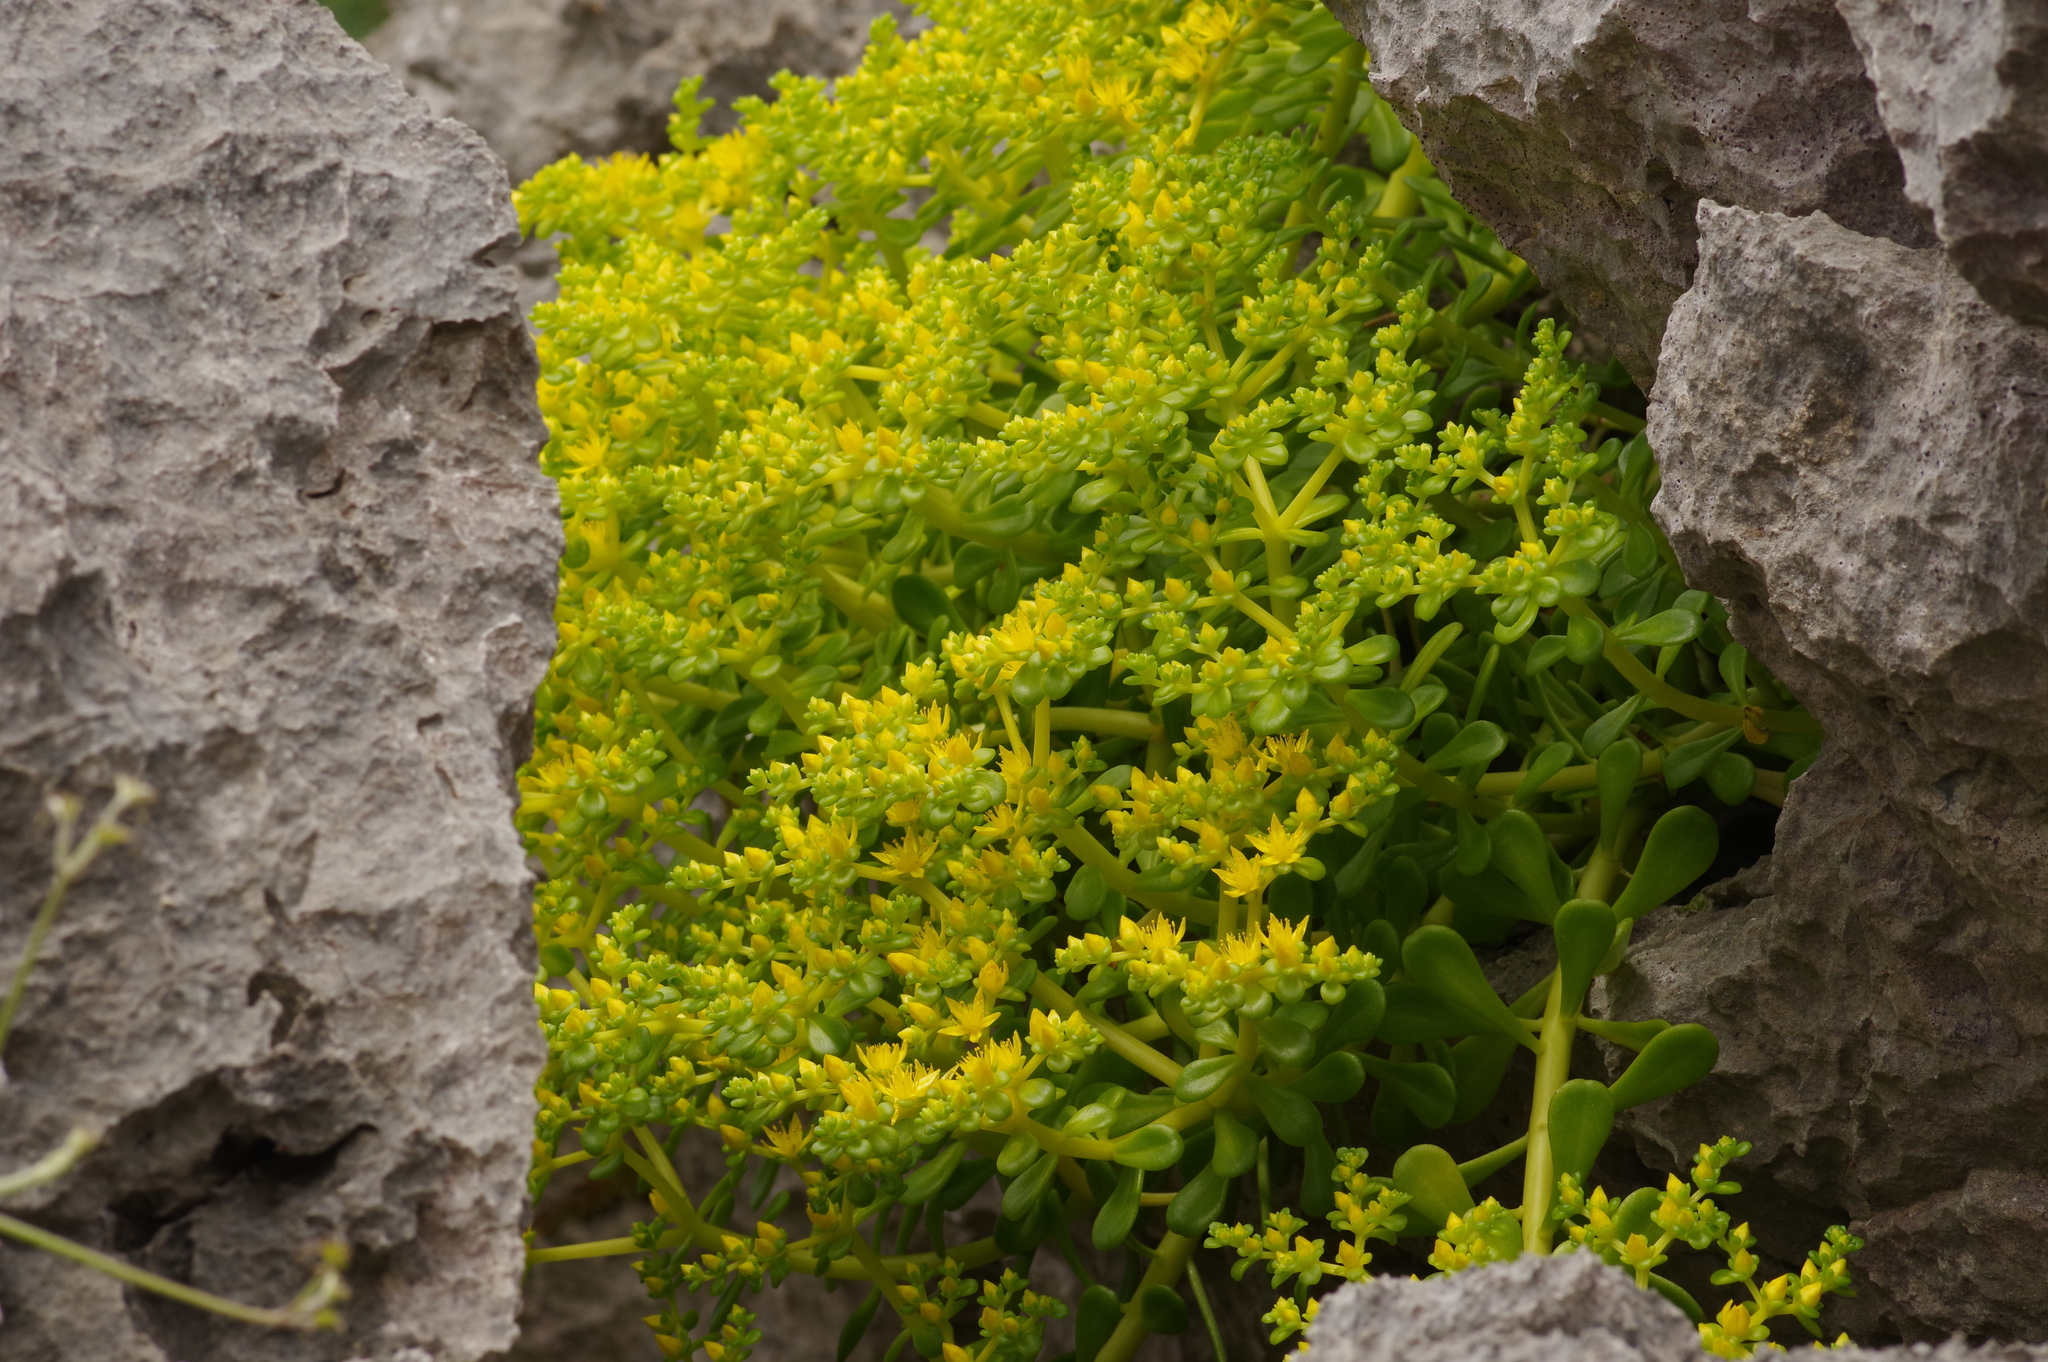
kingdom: Plantae
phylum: Tracheophyta
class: Magnoliopsida
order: Saxifragales
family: Crassulaceae
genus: Sedum
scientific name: Sedum formosanum
